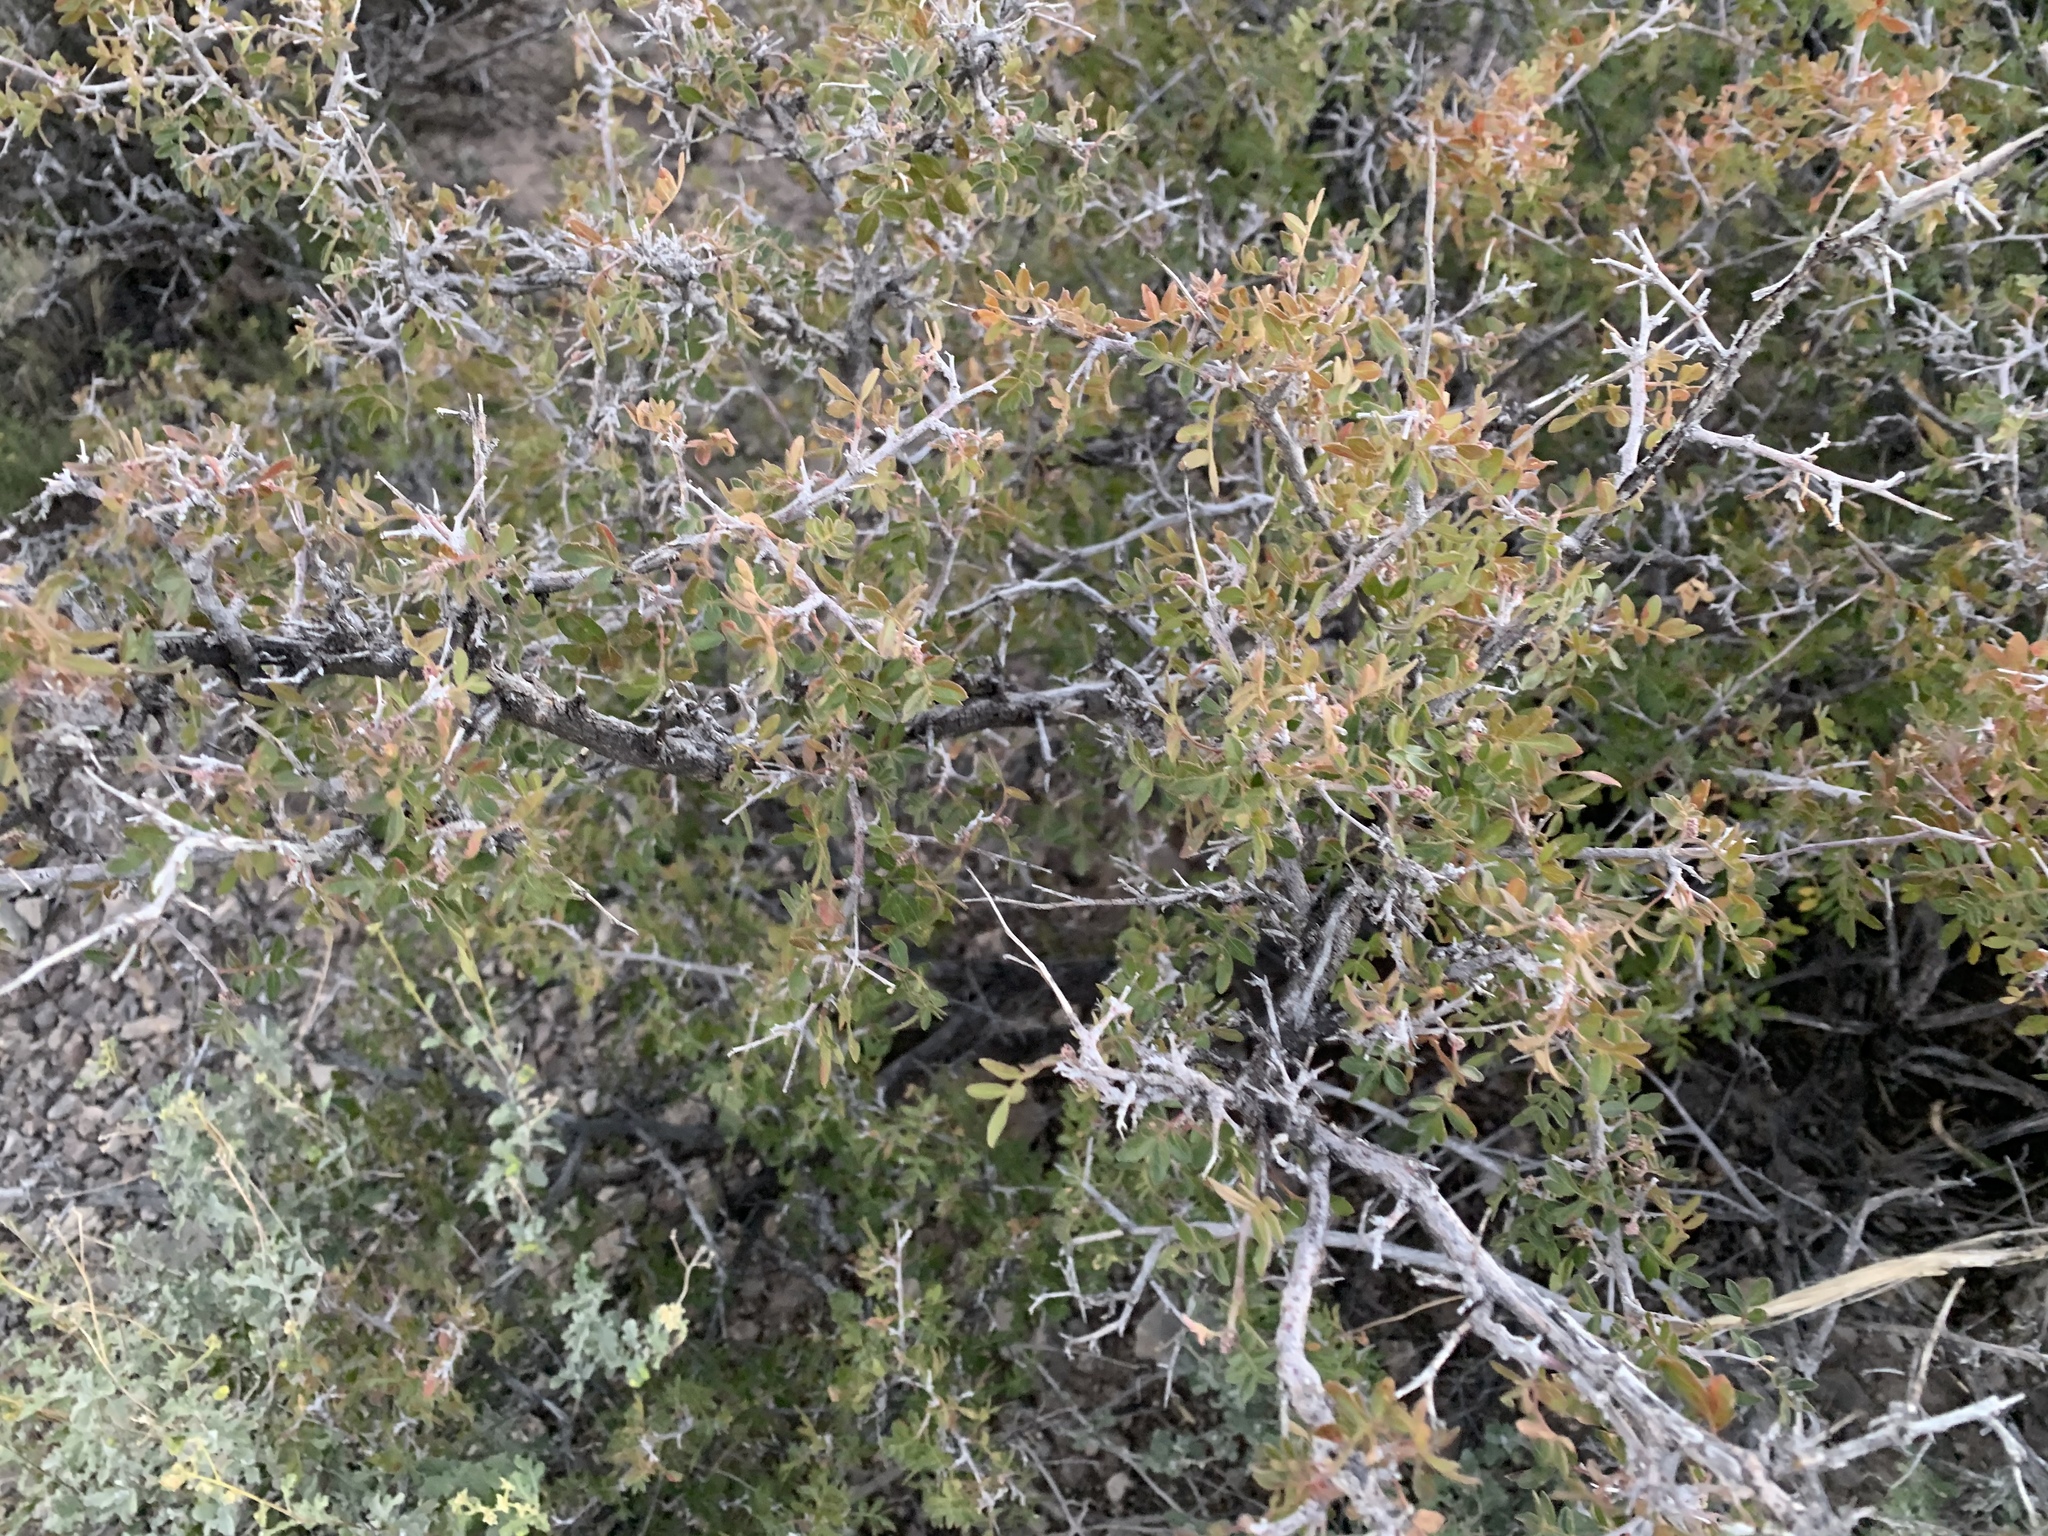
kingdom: Plantae
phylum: Tracheophyta
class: Magnoliopsida
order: Sapindales
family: Anacardiaceae
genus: Rhus
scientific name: Rhus microphylla
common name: Desert sumac
